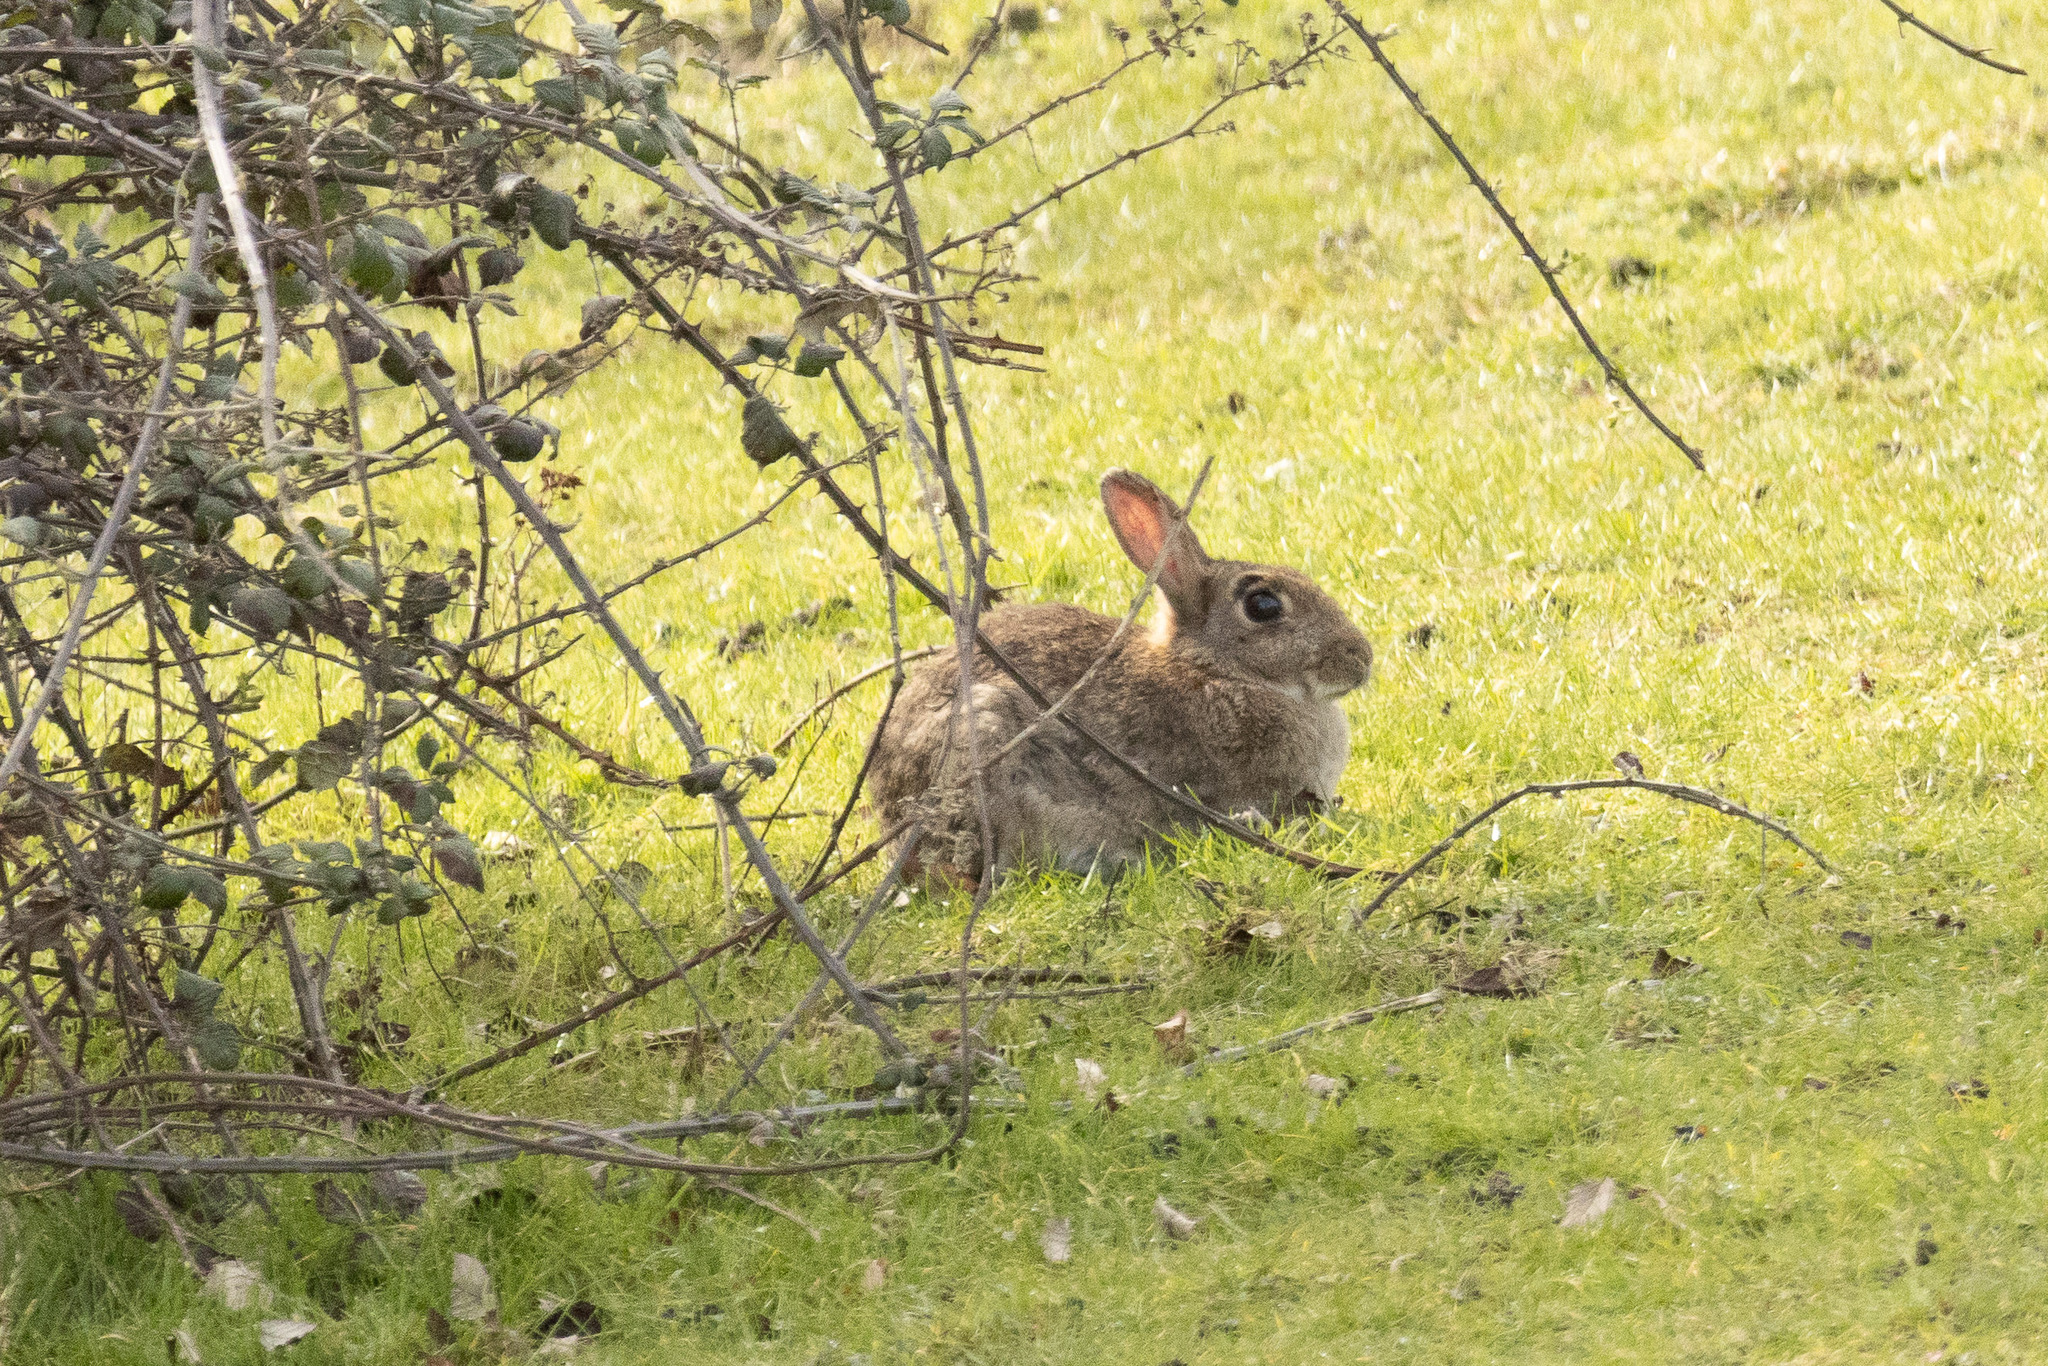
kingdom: Animalia
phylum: Chordata
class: Mammalia
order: Lagomorpha
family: Leporidae
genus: Oryctolagus
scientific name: Oryctolagus cuniculus
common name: European rabbit
